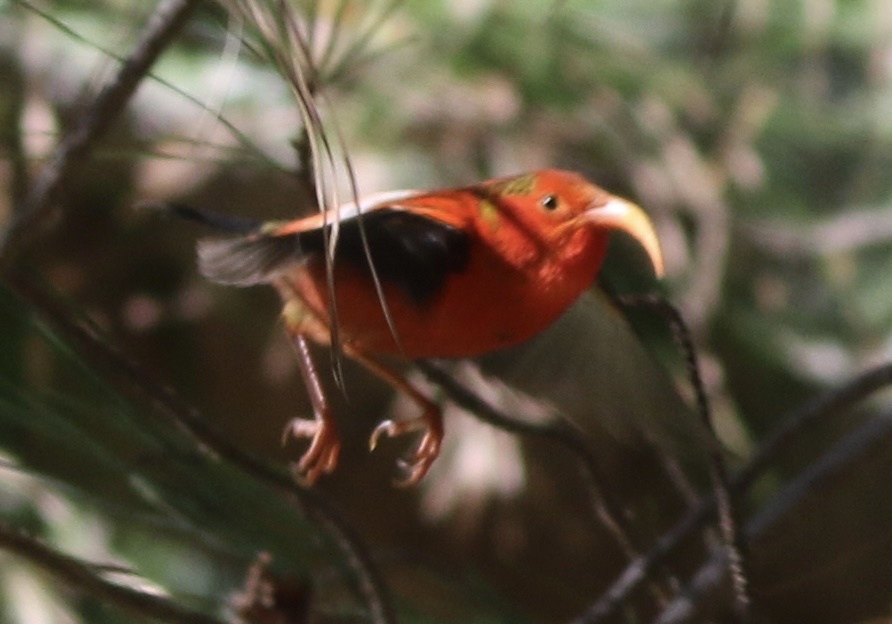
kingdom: Animalia
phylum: Chordata
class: Aves
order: Passeriformes
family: Fringillidae
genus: Vestiaria
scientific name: Vestiaria coccinea
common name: Iiwi
